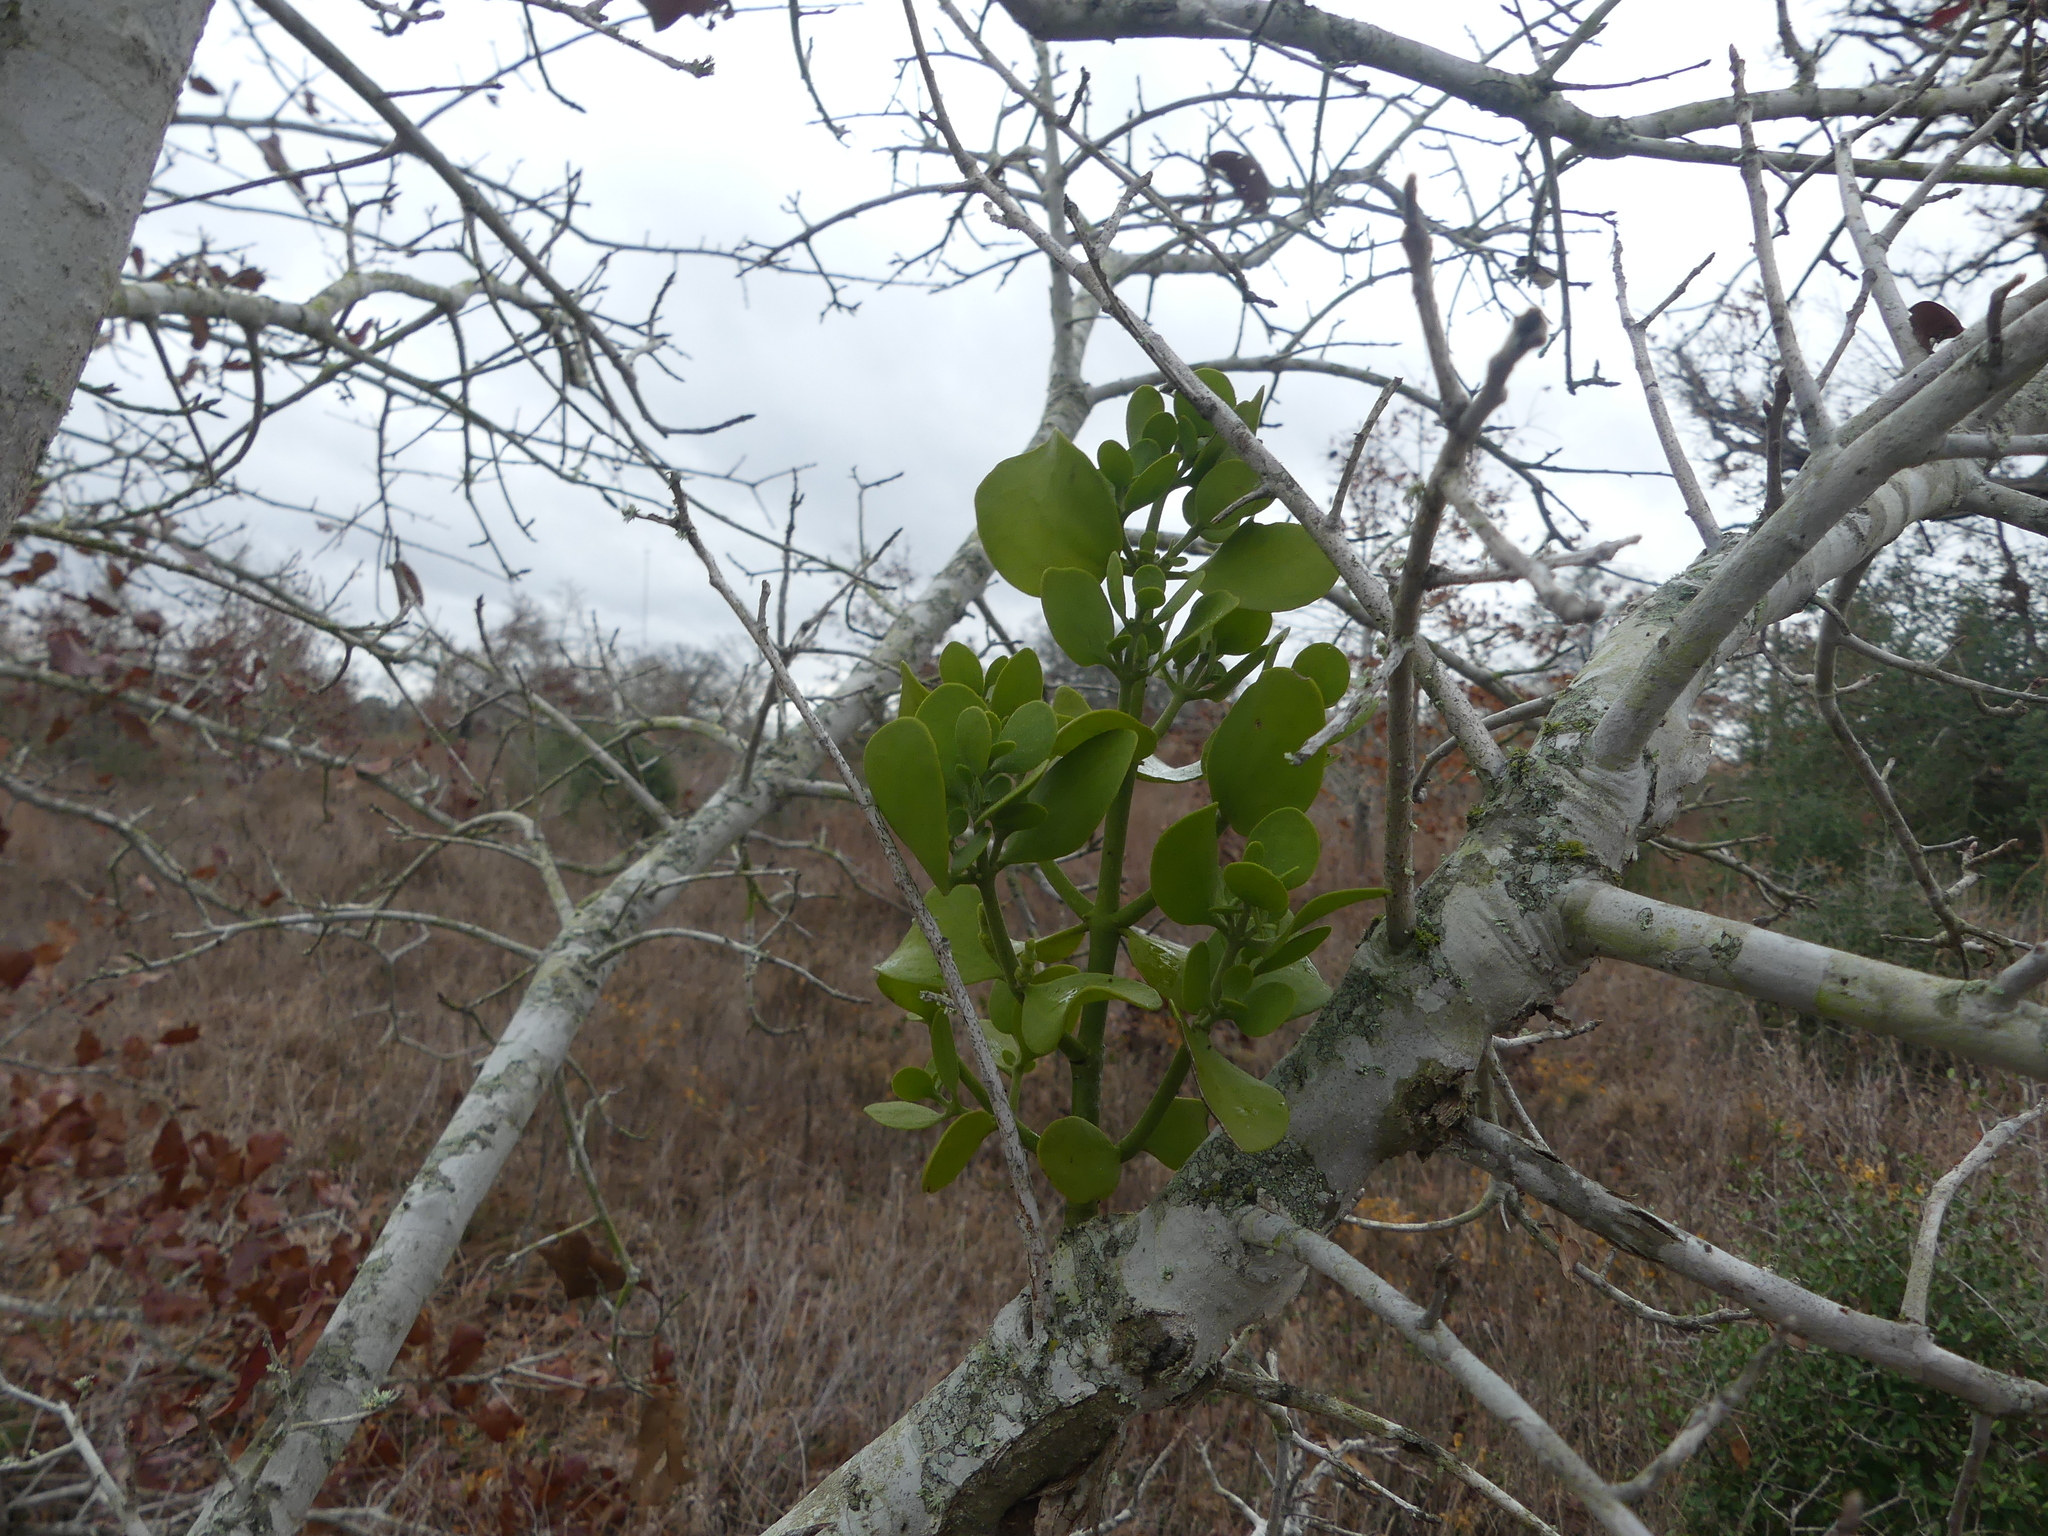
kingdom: Plantae
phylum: Tracheophyta
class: Magnoliopsida
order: Santalales
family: Viscaceae
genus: Phoradendron
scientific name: Phoradendron leucarpum
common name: Pacific mistletoe
